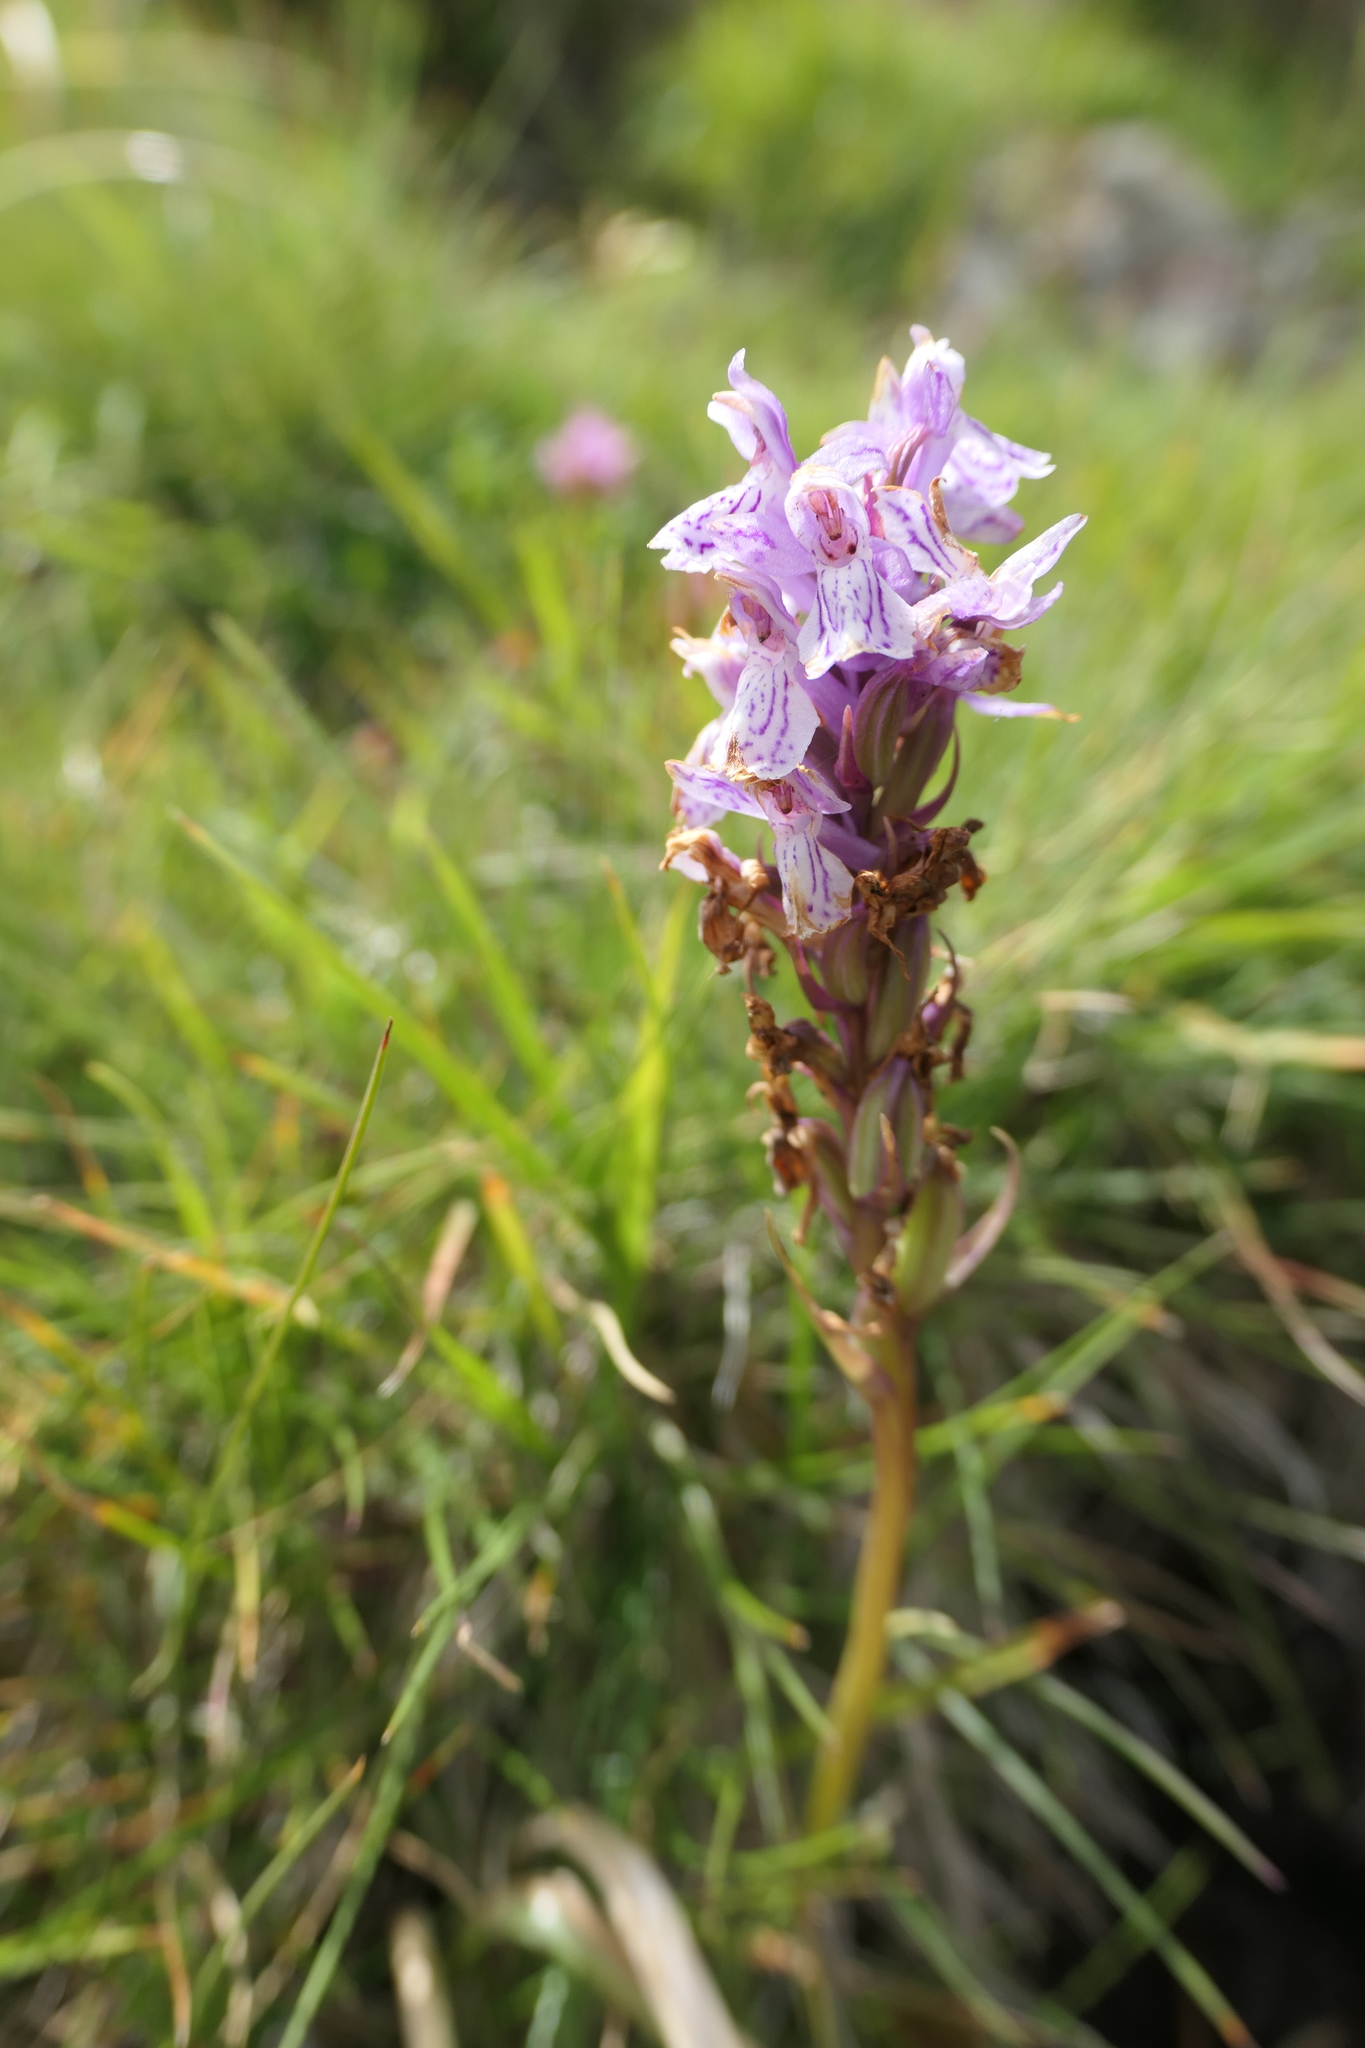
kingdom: Plantae
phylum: Tracheophyta
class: Liliopsida
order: Asparagales
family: Orchidaceae
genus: Dactylorhiza
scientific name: Dactylorhiza maculata
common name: Heath spotted-orchid
